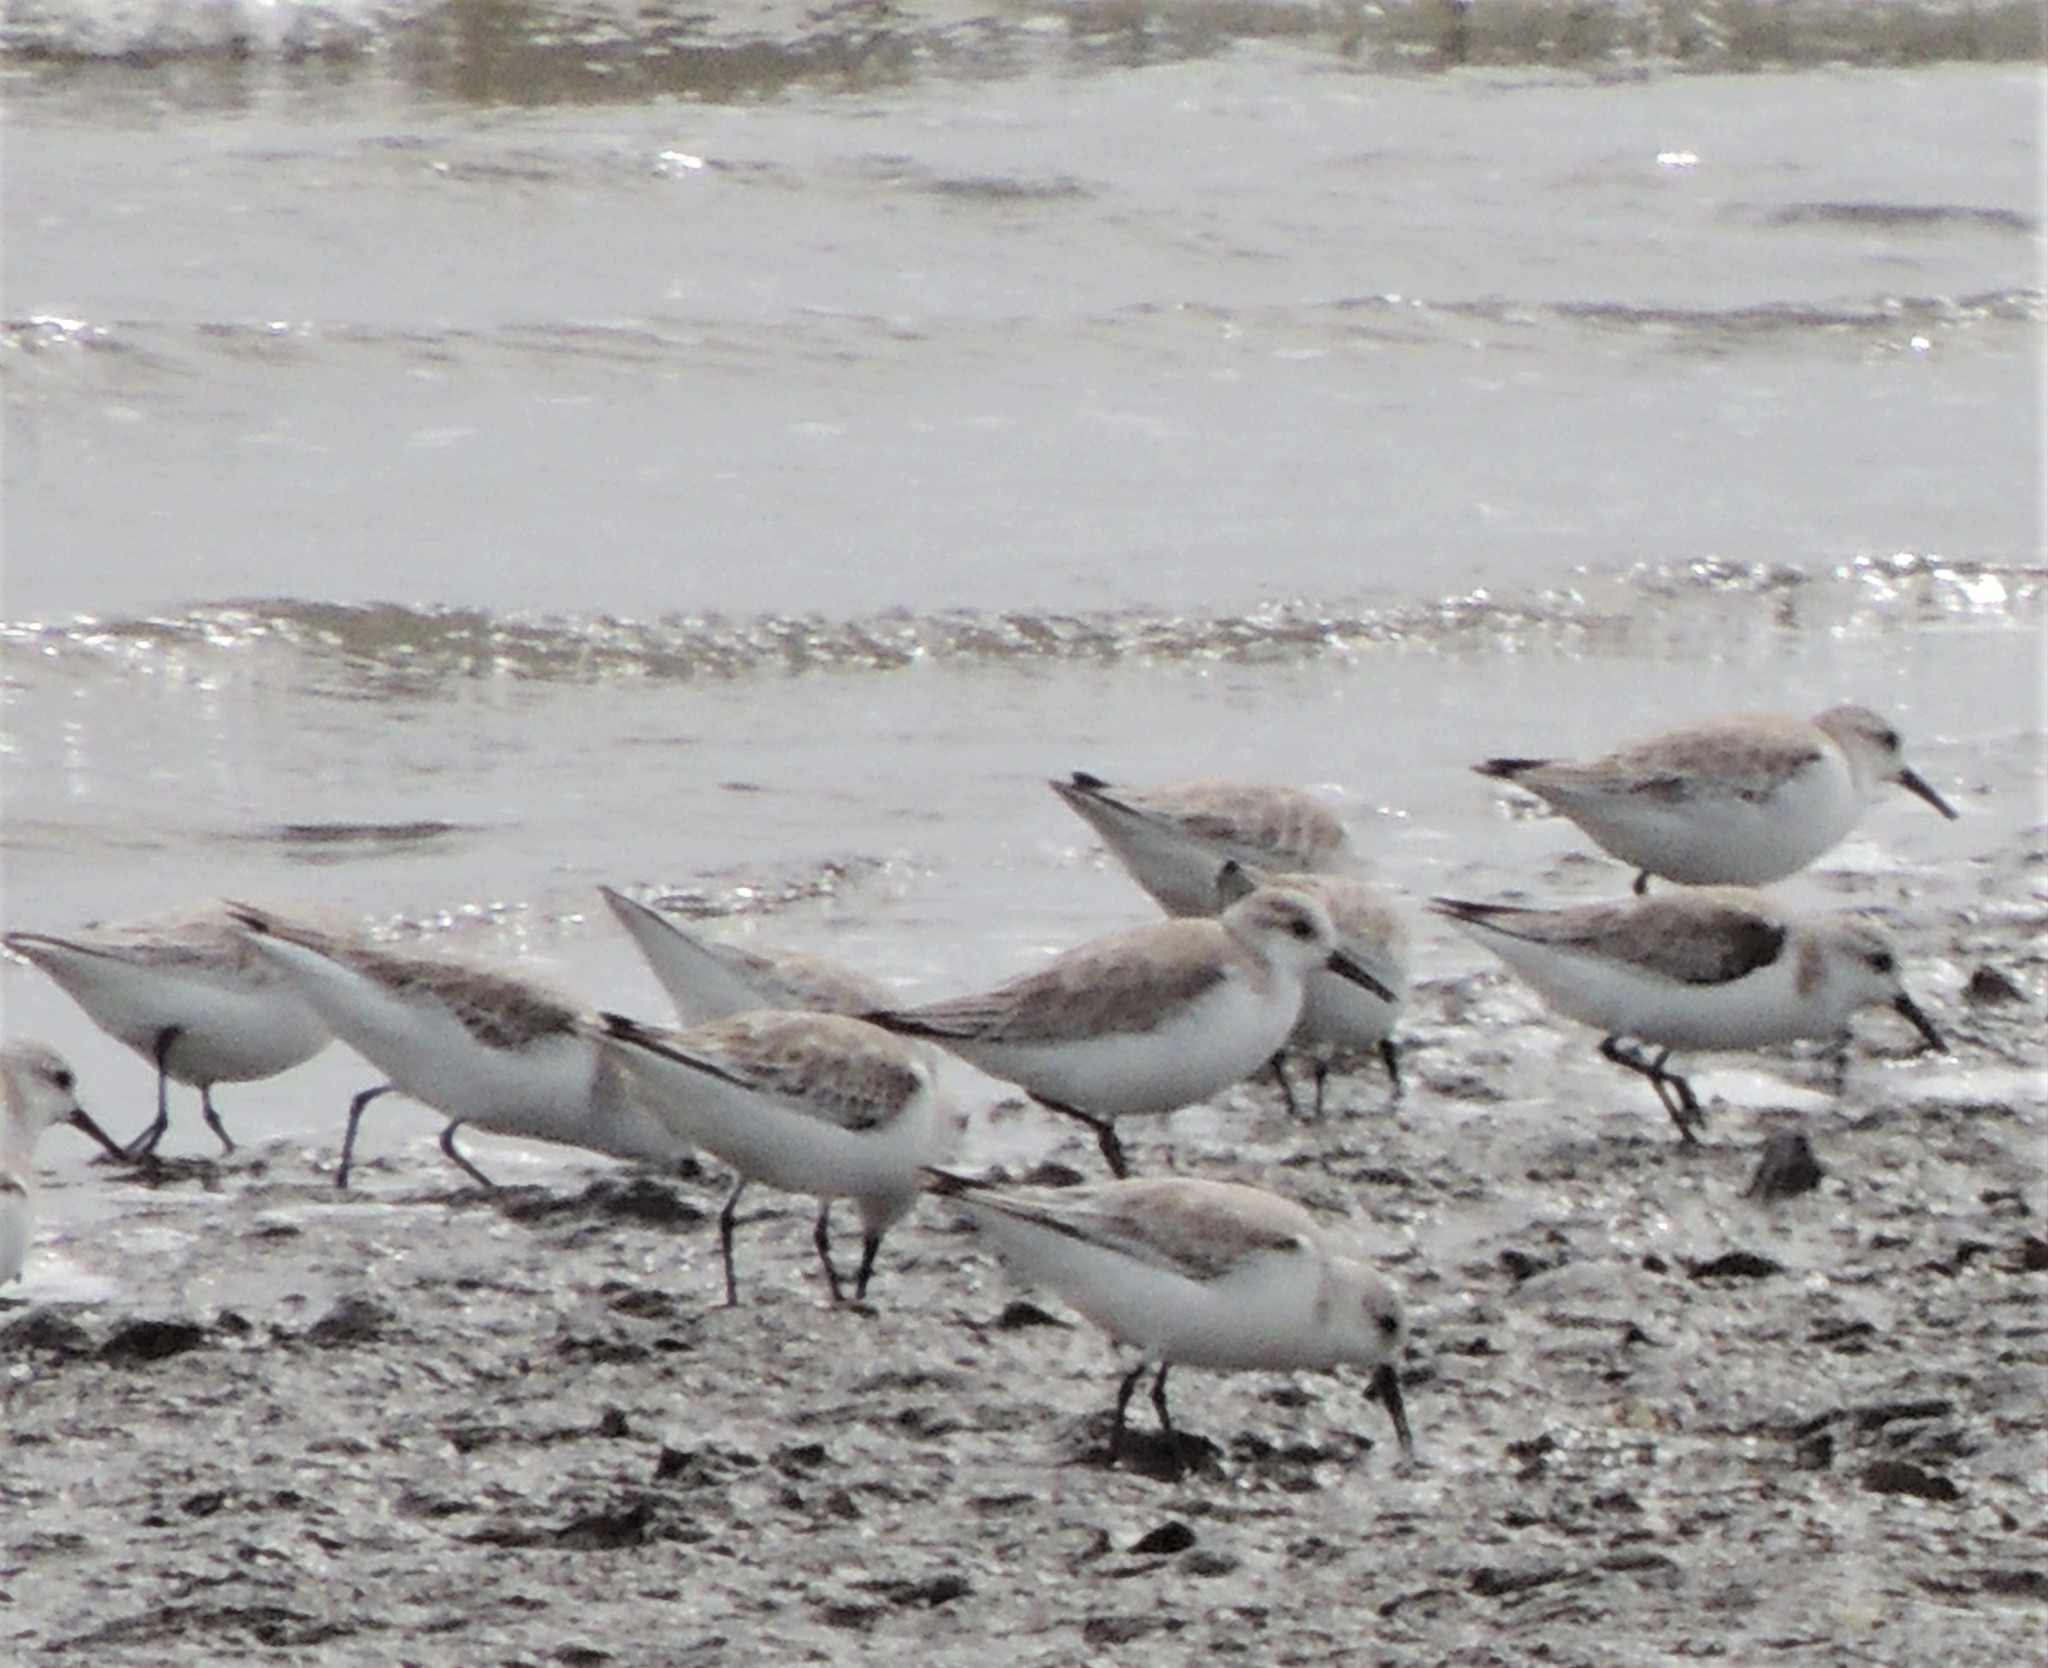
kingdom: Animalia
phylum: Chordata
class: Aves
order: Charadriiformes
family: Scolopacidae
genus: Calidris
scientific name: Calidris alba
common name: Sanderling
